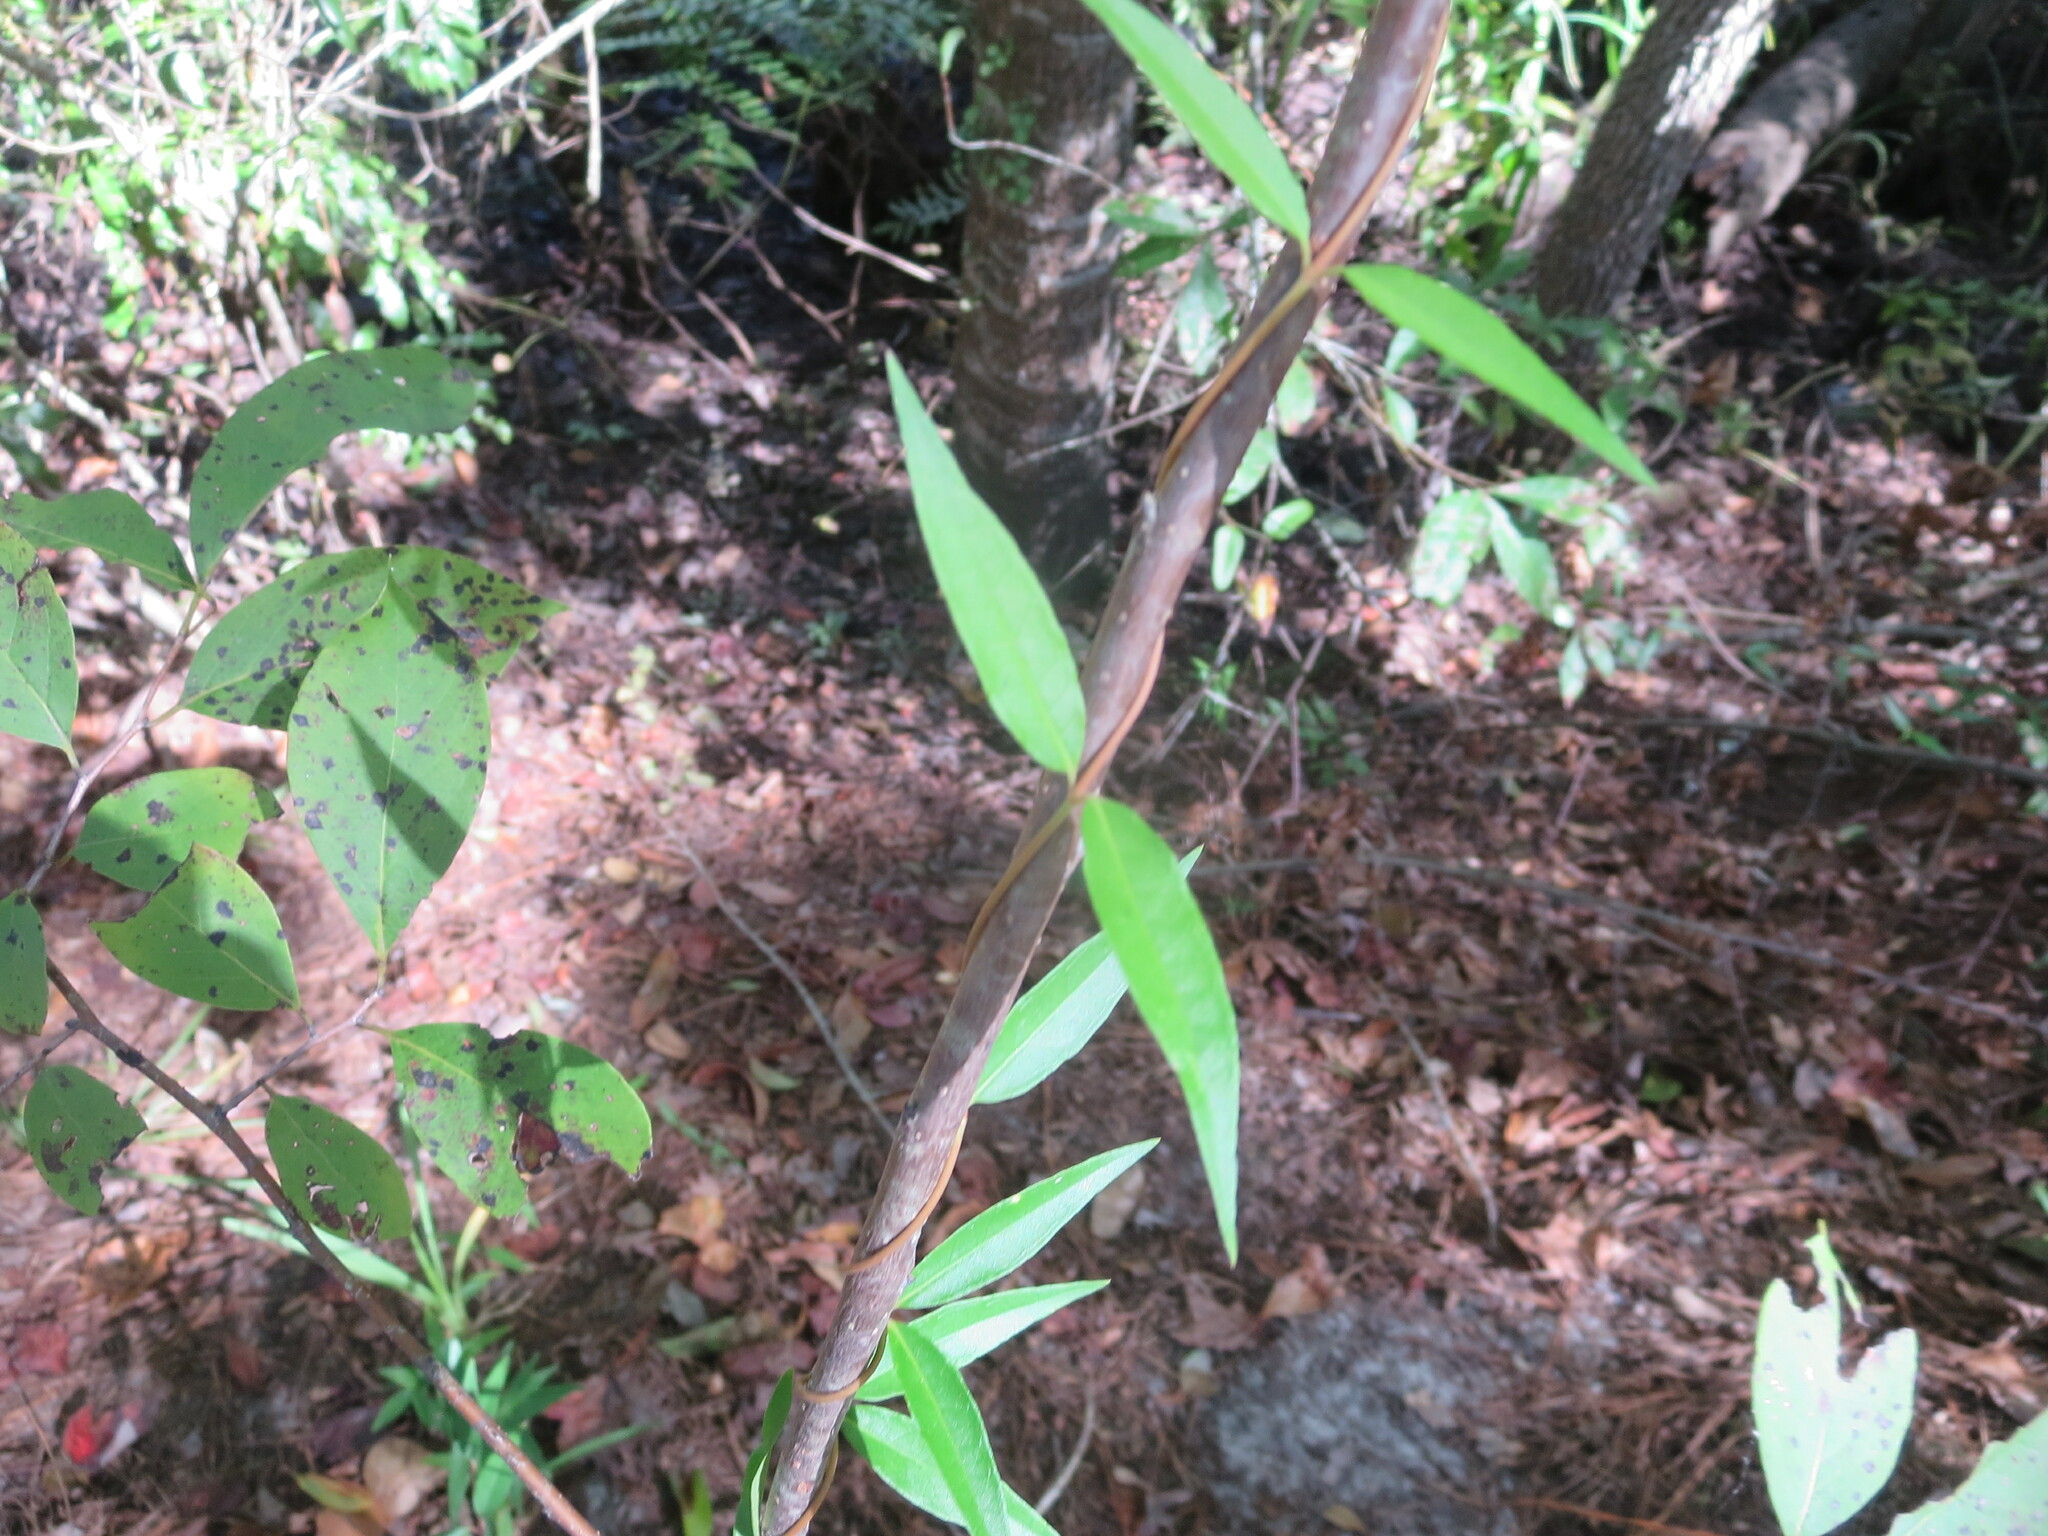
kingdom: Plantae
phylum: Tracheophyta
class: Magnoliopsida
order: Gentianales
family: Gelsemiaceae
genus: Gelsemium
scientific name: Gelsemium sempervirens
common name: Carolina-jasmine
